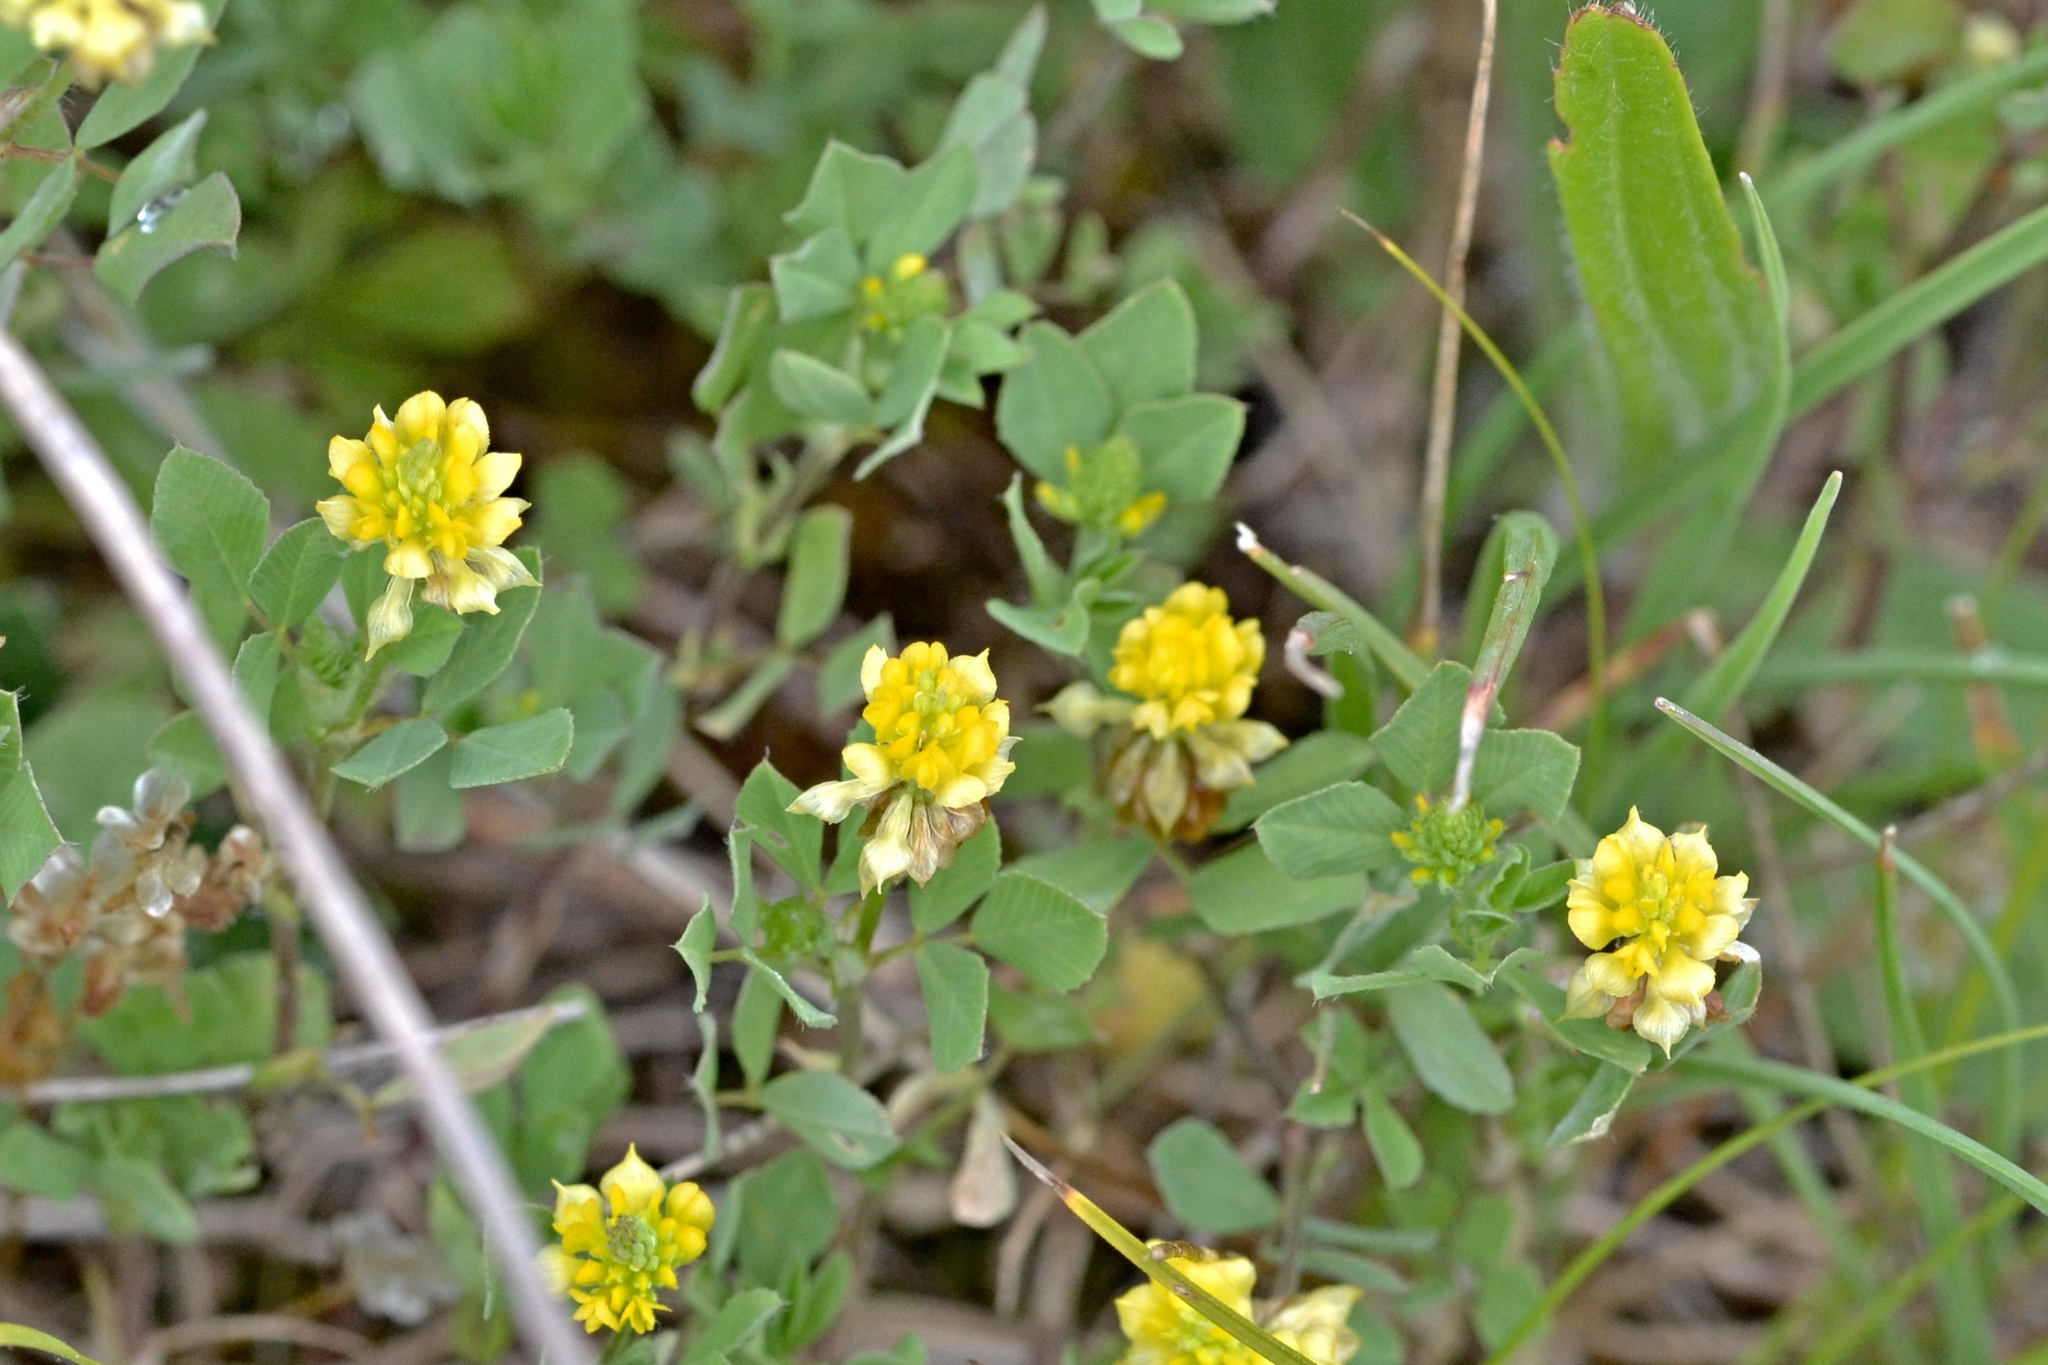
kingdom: Plantae
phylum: Tracheophyta
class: Magnoliopsida
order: Fabales
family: Fabaceae
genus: Trifolium
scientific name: Trifolium campestre
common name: Field clover
